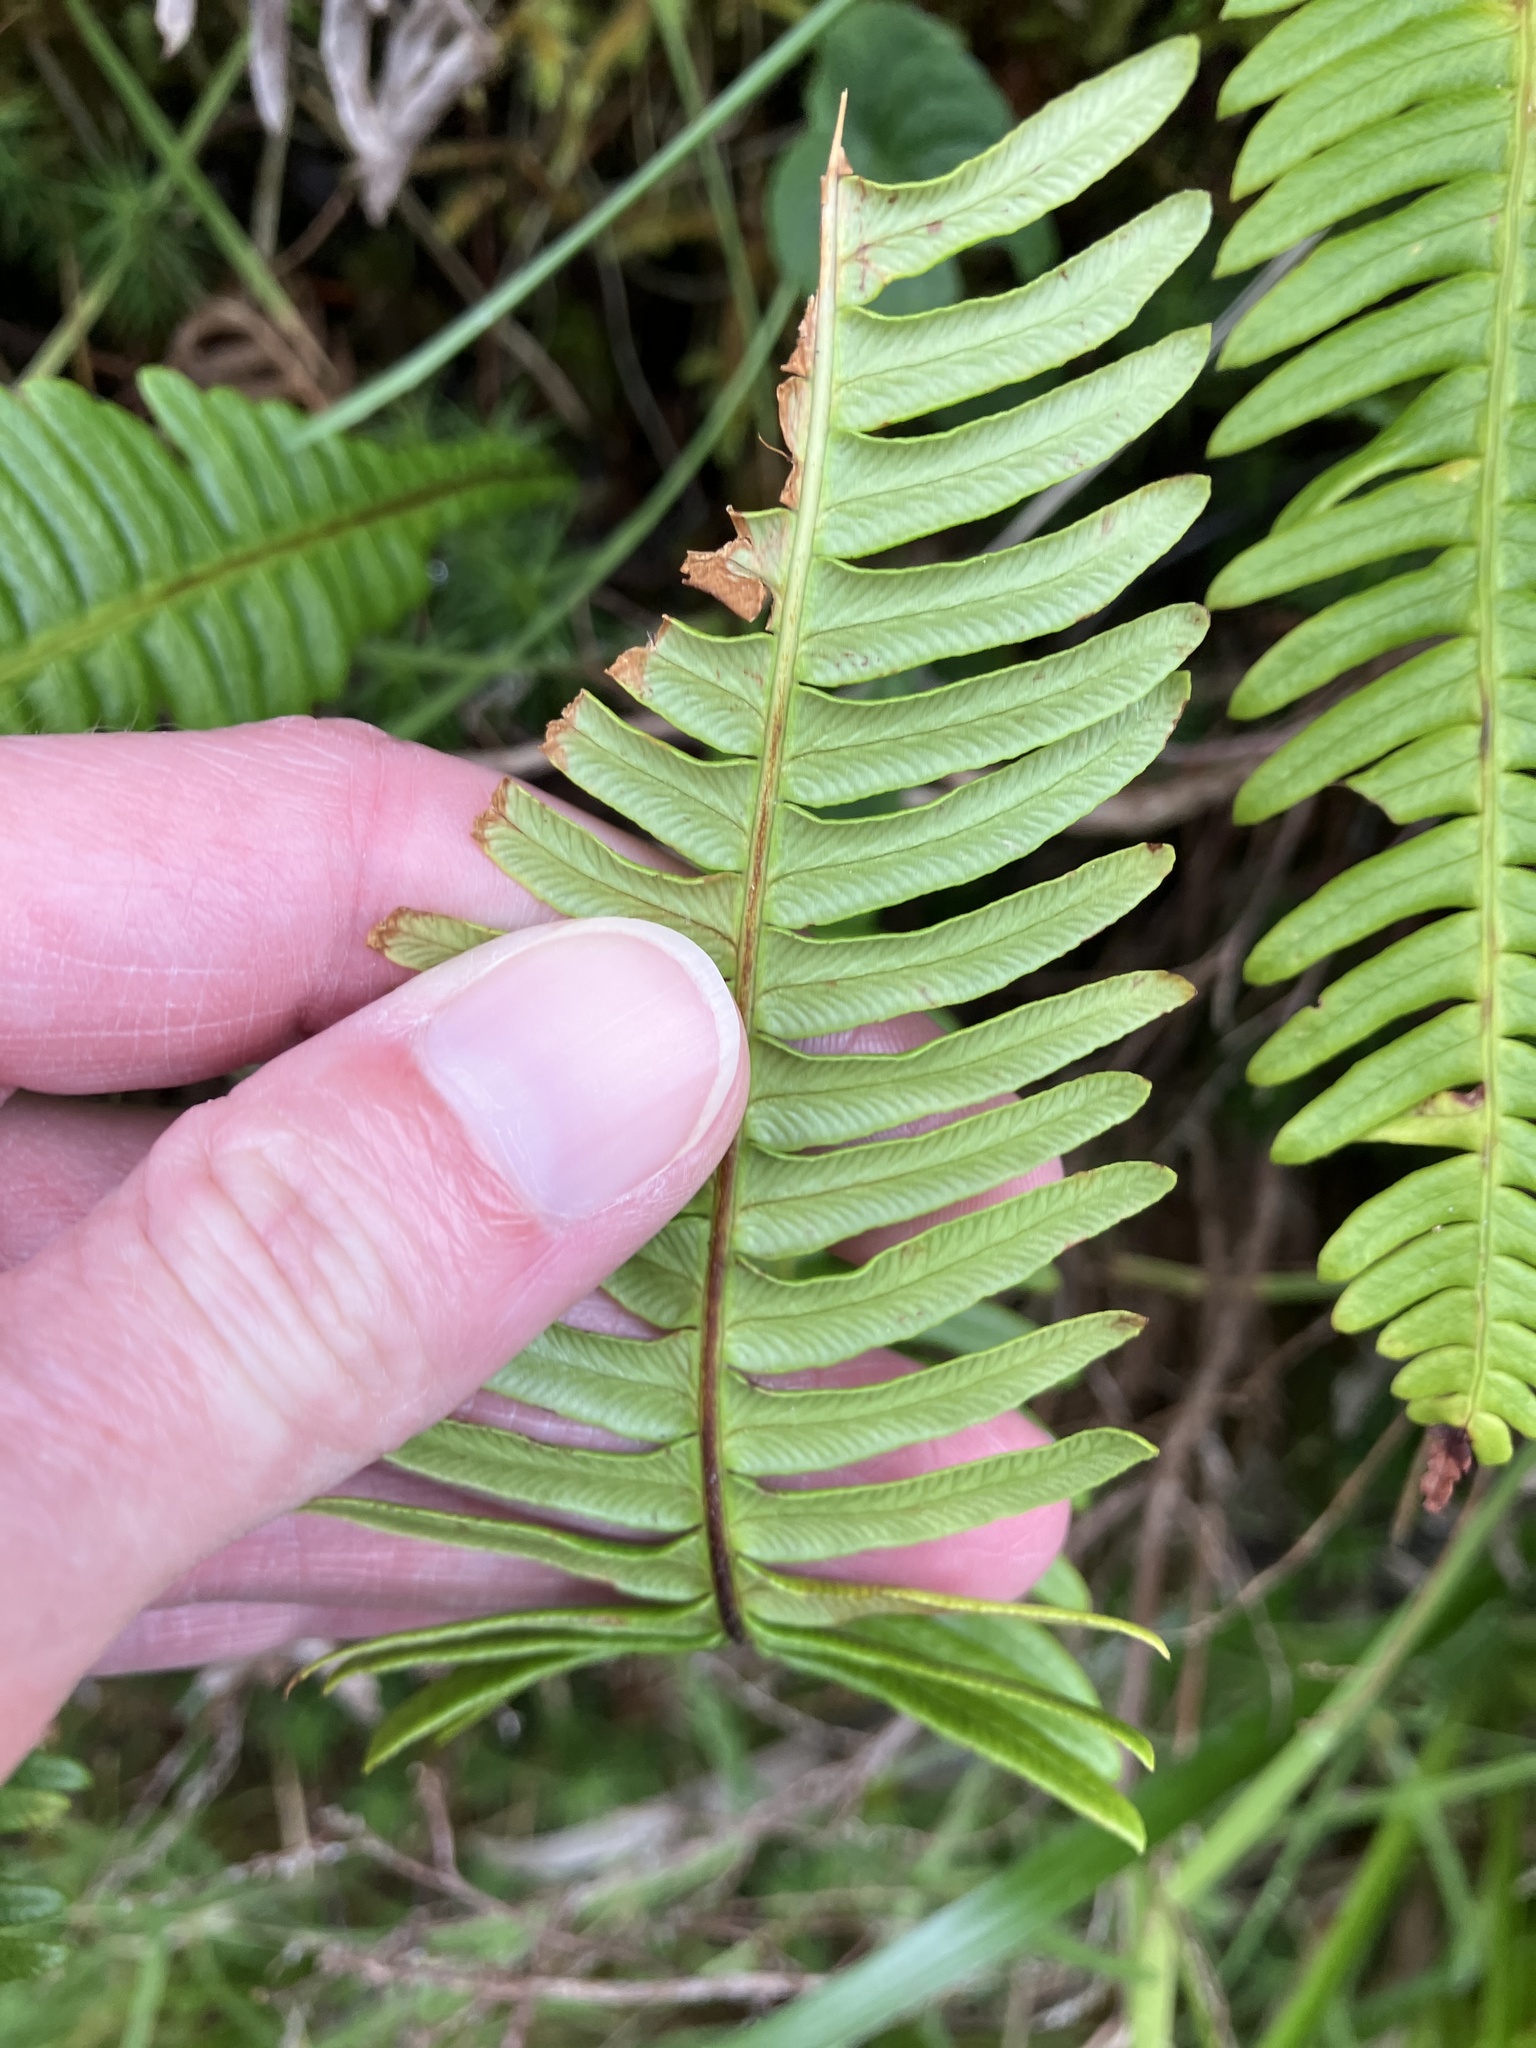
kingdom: Plantae
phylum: Tracheophyta
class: Polypodiopsida
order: Polypodiales
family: Blechnaceae
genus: Struthiopteris
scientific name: Struthiopteris spicant
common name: Deer fern
